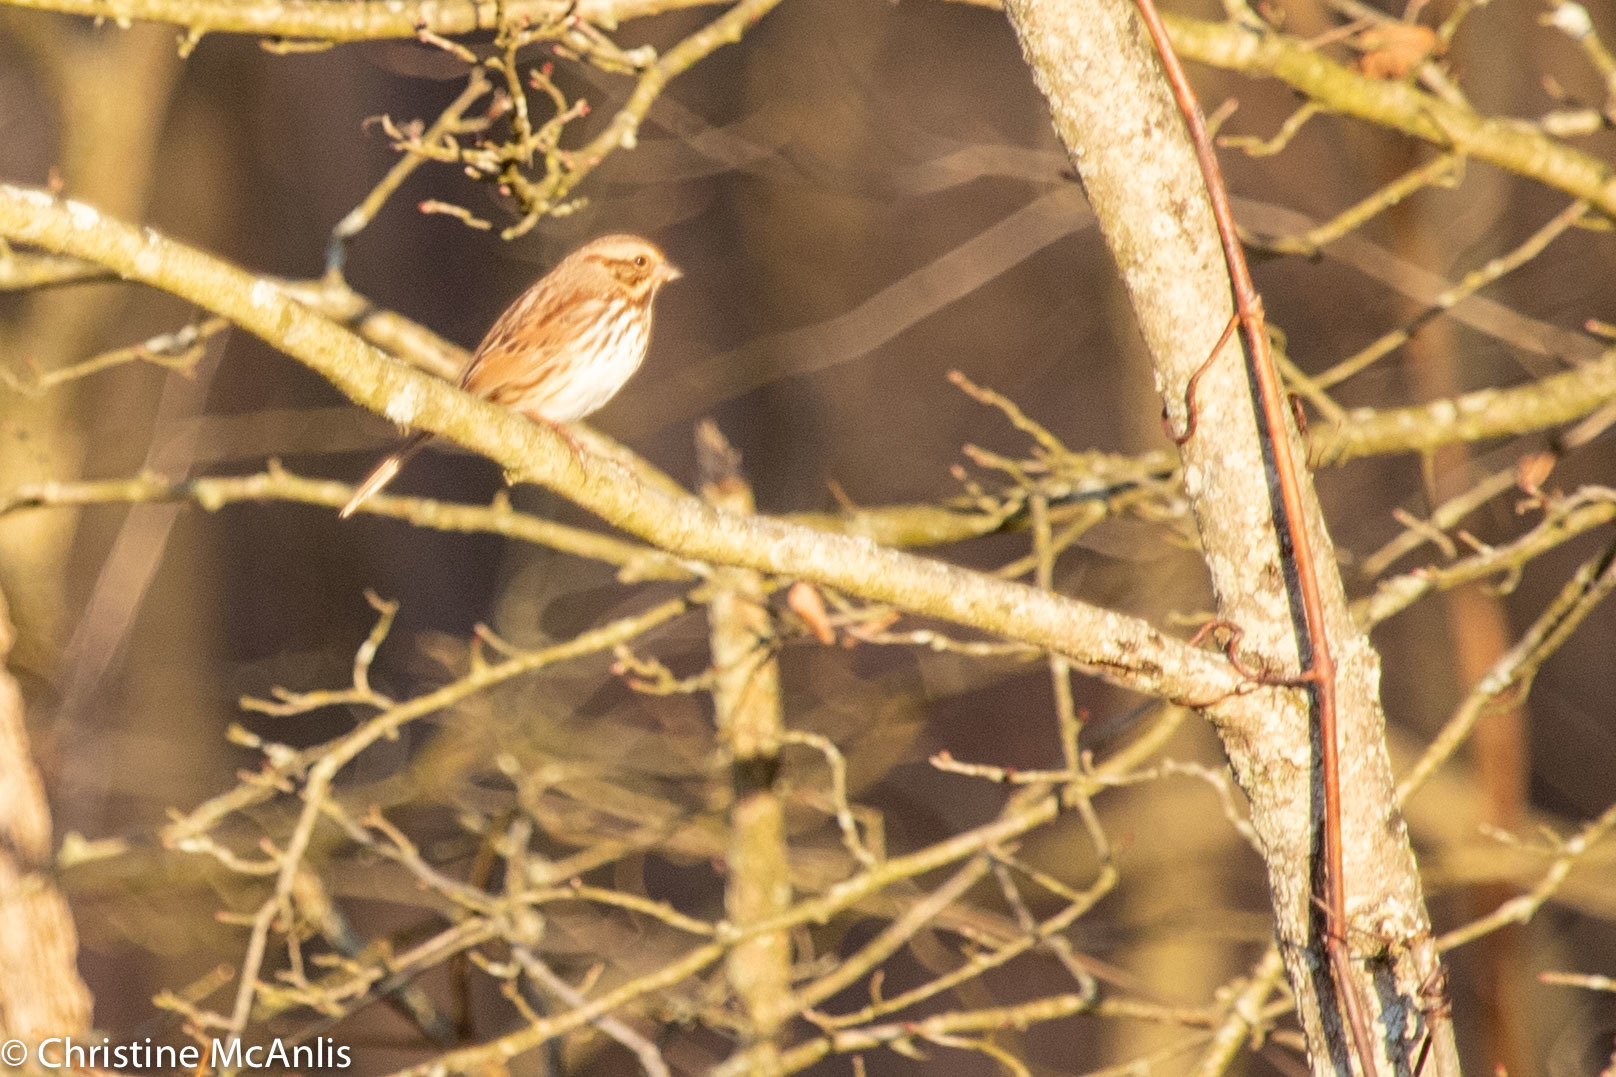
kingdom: Animalia
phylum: Chordata
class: Aves
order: Passeriformes
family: Passerellidae
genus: Melospiza
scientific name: Melospiza melodia
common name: Song sparrow
